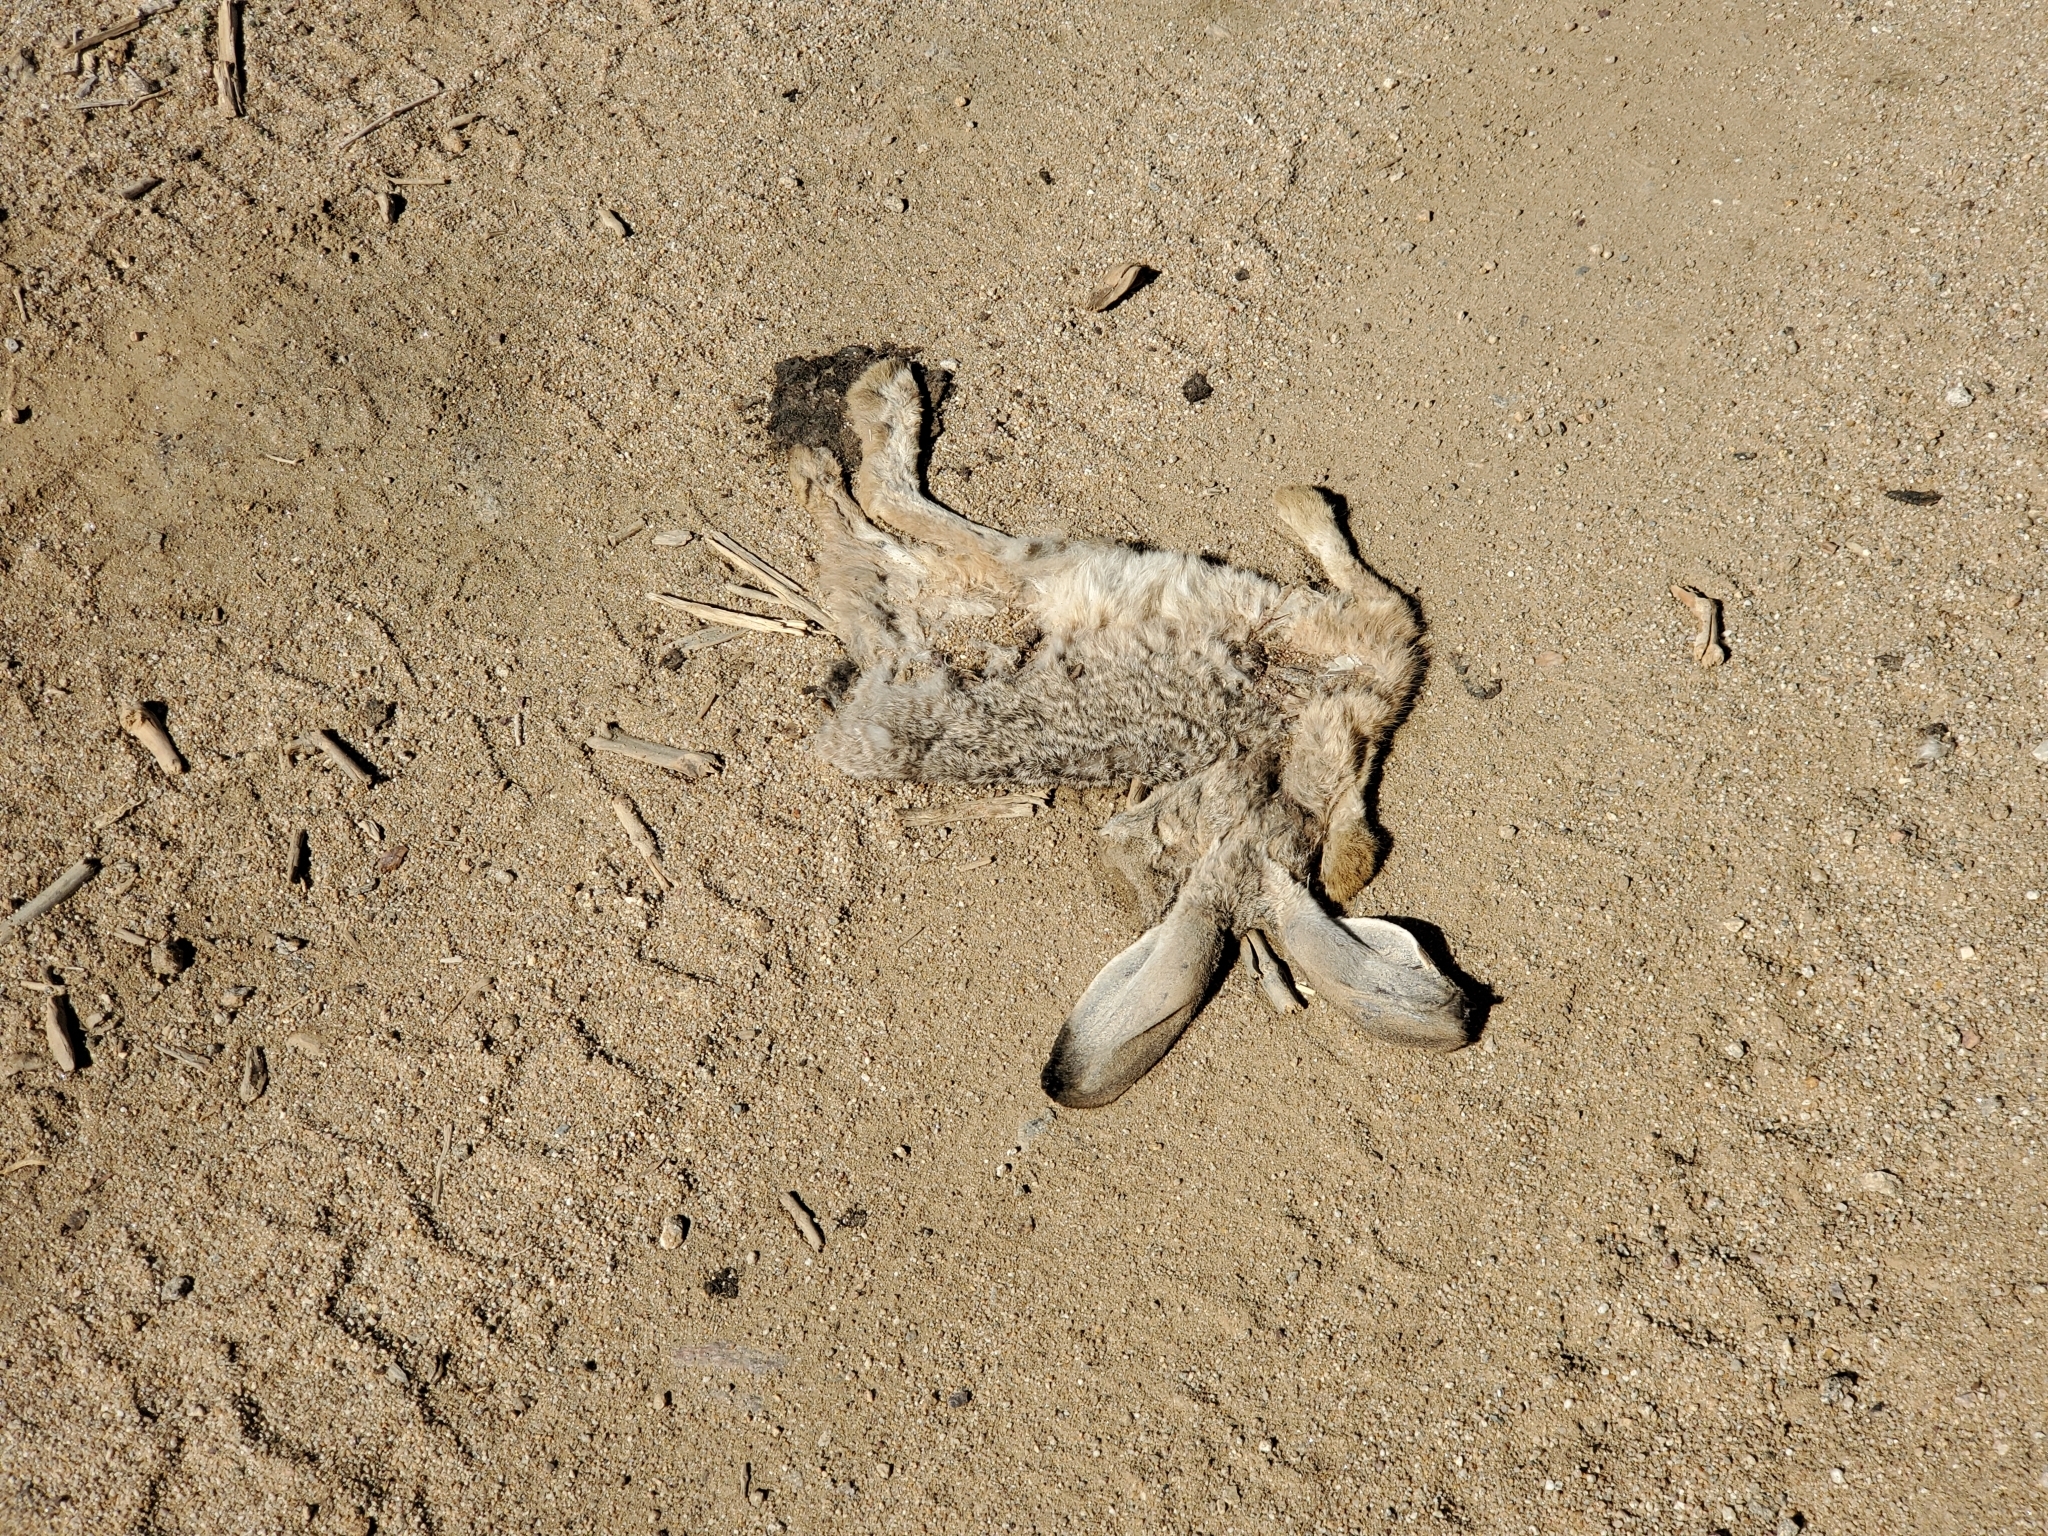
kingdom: Animalia
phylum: Chordata
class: Mammalia
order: Lagomorpha
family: Leporidae
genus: Lepus
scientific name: Lepus californicus
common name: Black-tailed jackrabbit
